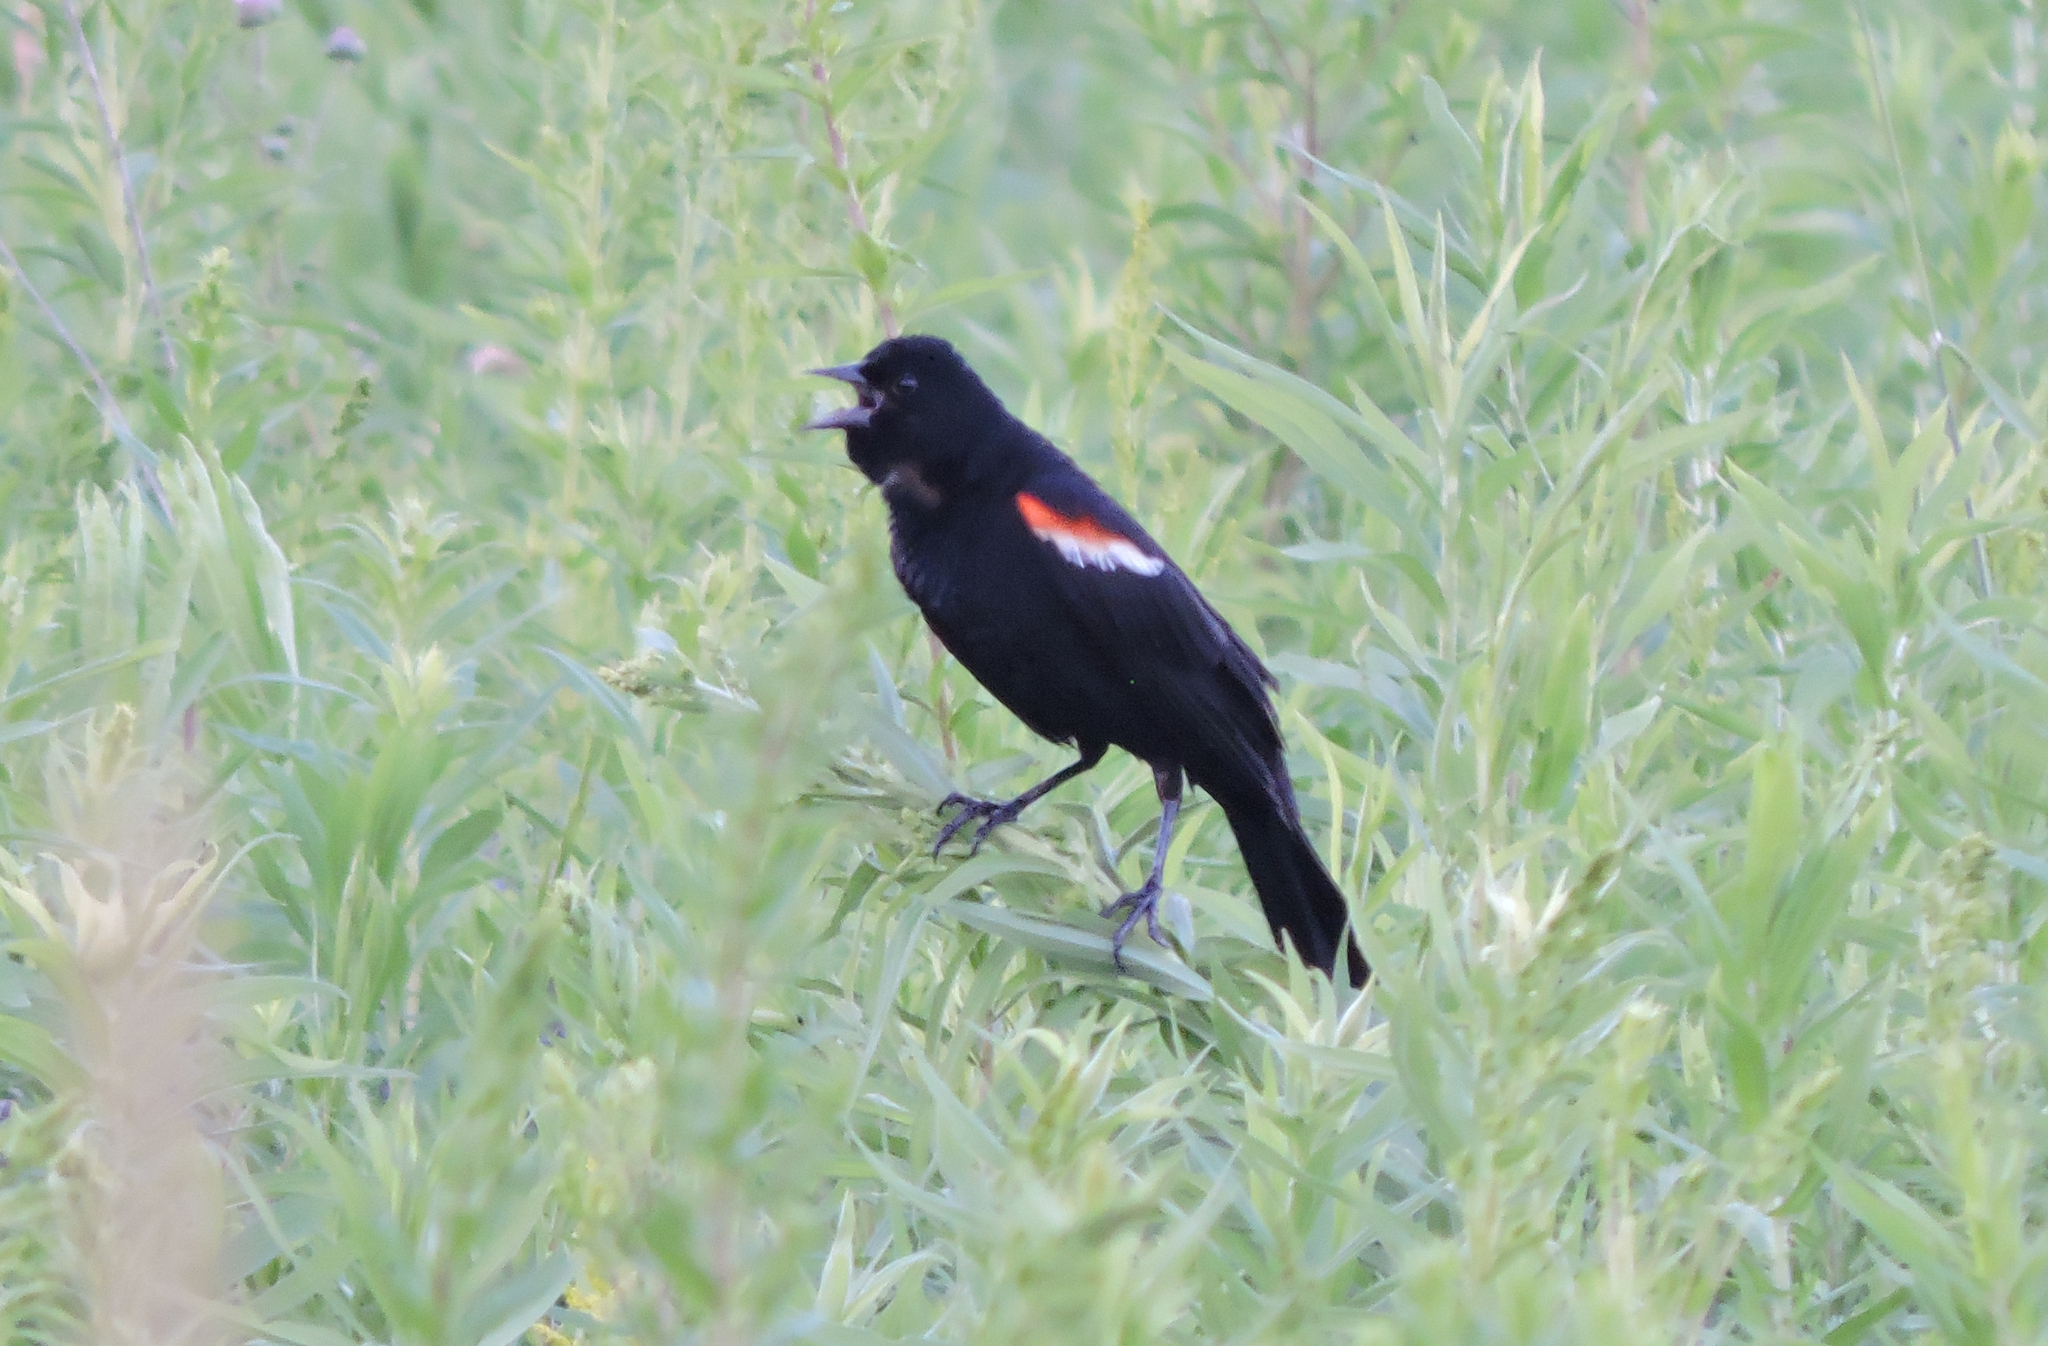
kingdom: Animalia
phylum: Chordata
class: Aves
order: Passeriformes
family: Icteridae
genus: Agelaius
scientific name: Agelaius phoeniceus
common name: Red-winged blackbird
